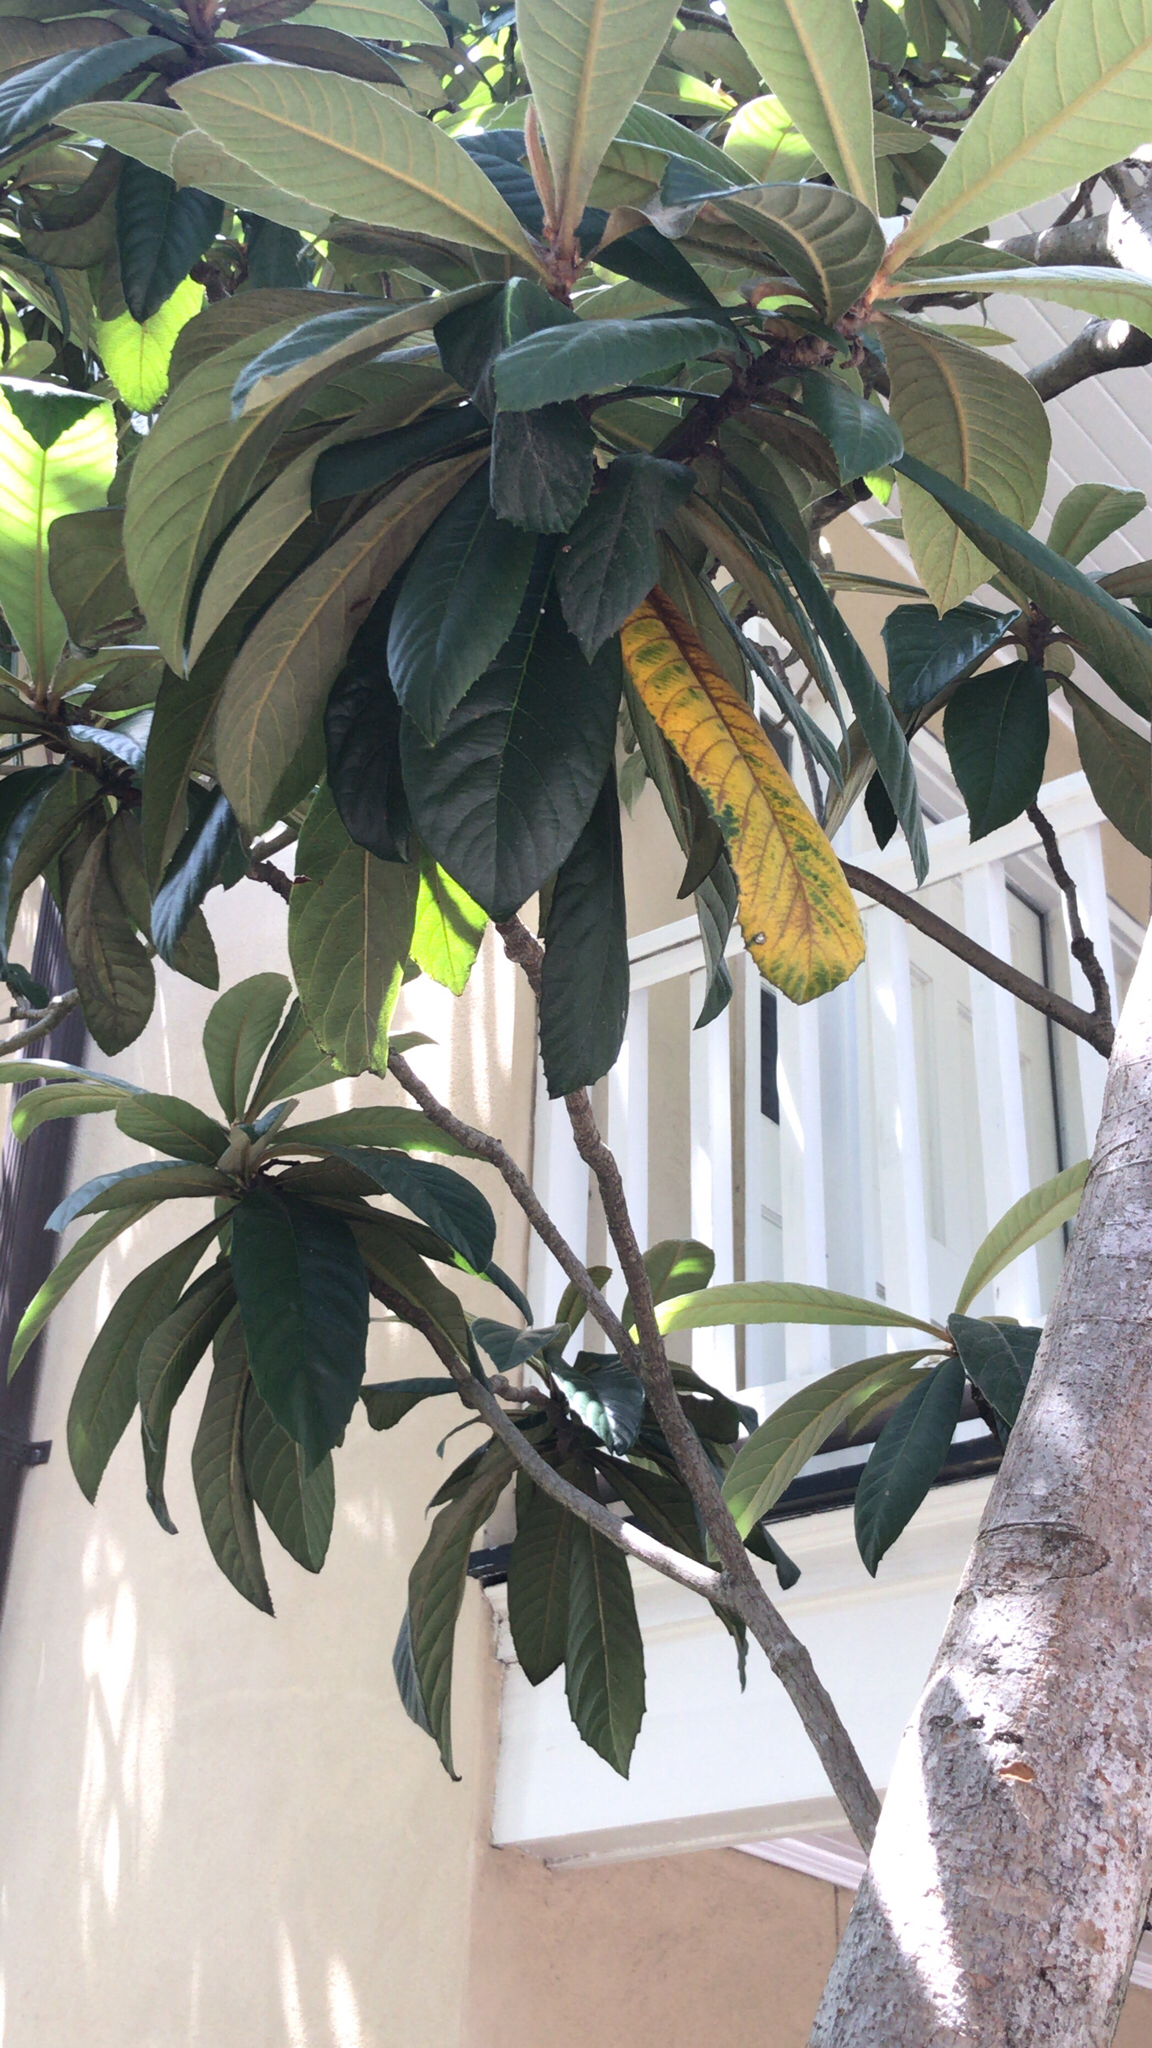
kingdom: Plantae
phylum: Tracheophyta
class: Magnoliopsida
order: Rosales
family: Rosaceae
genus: Rhaphiolepis
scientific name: Rhaphiolepis bibas
